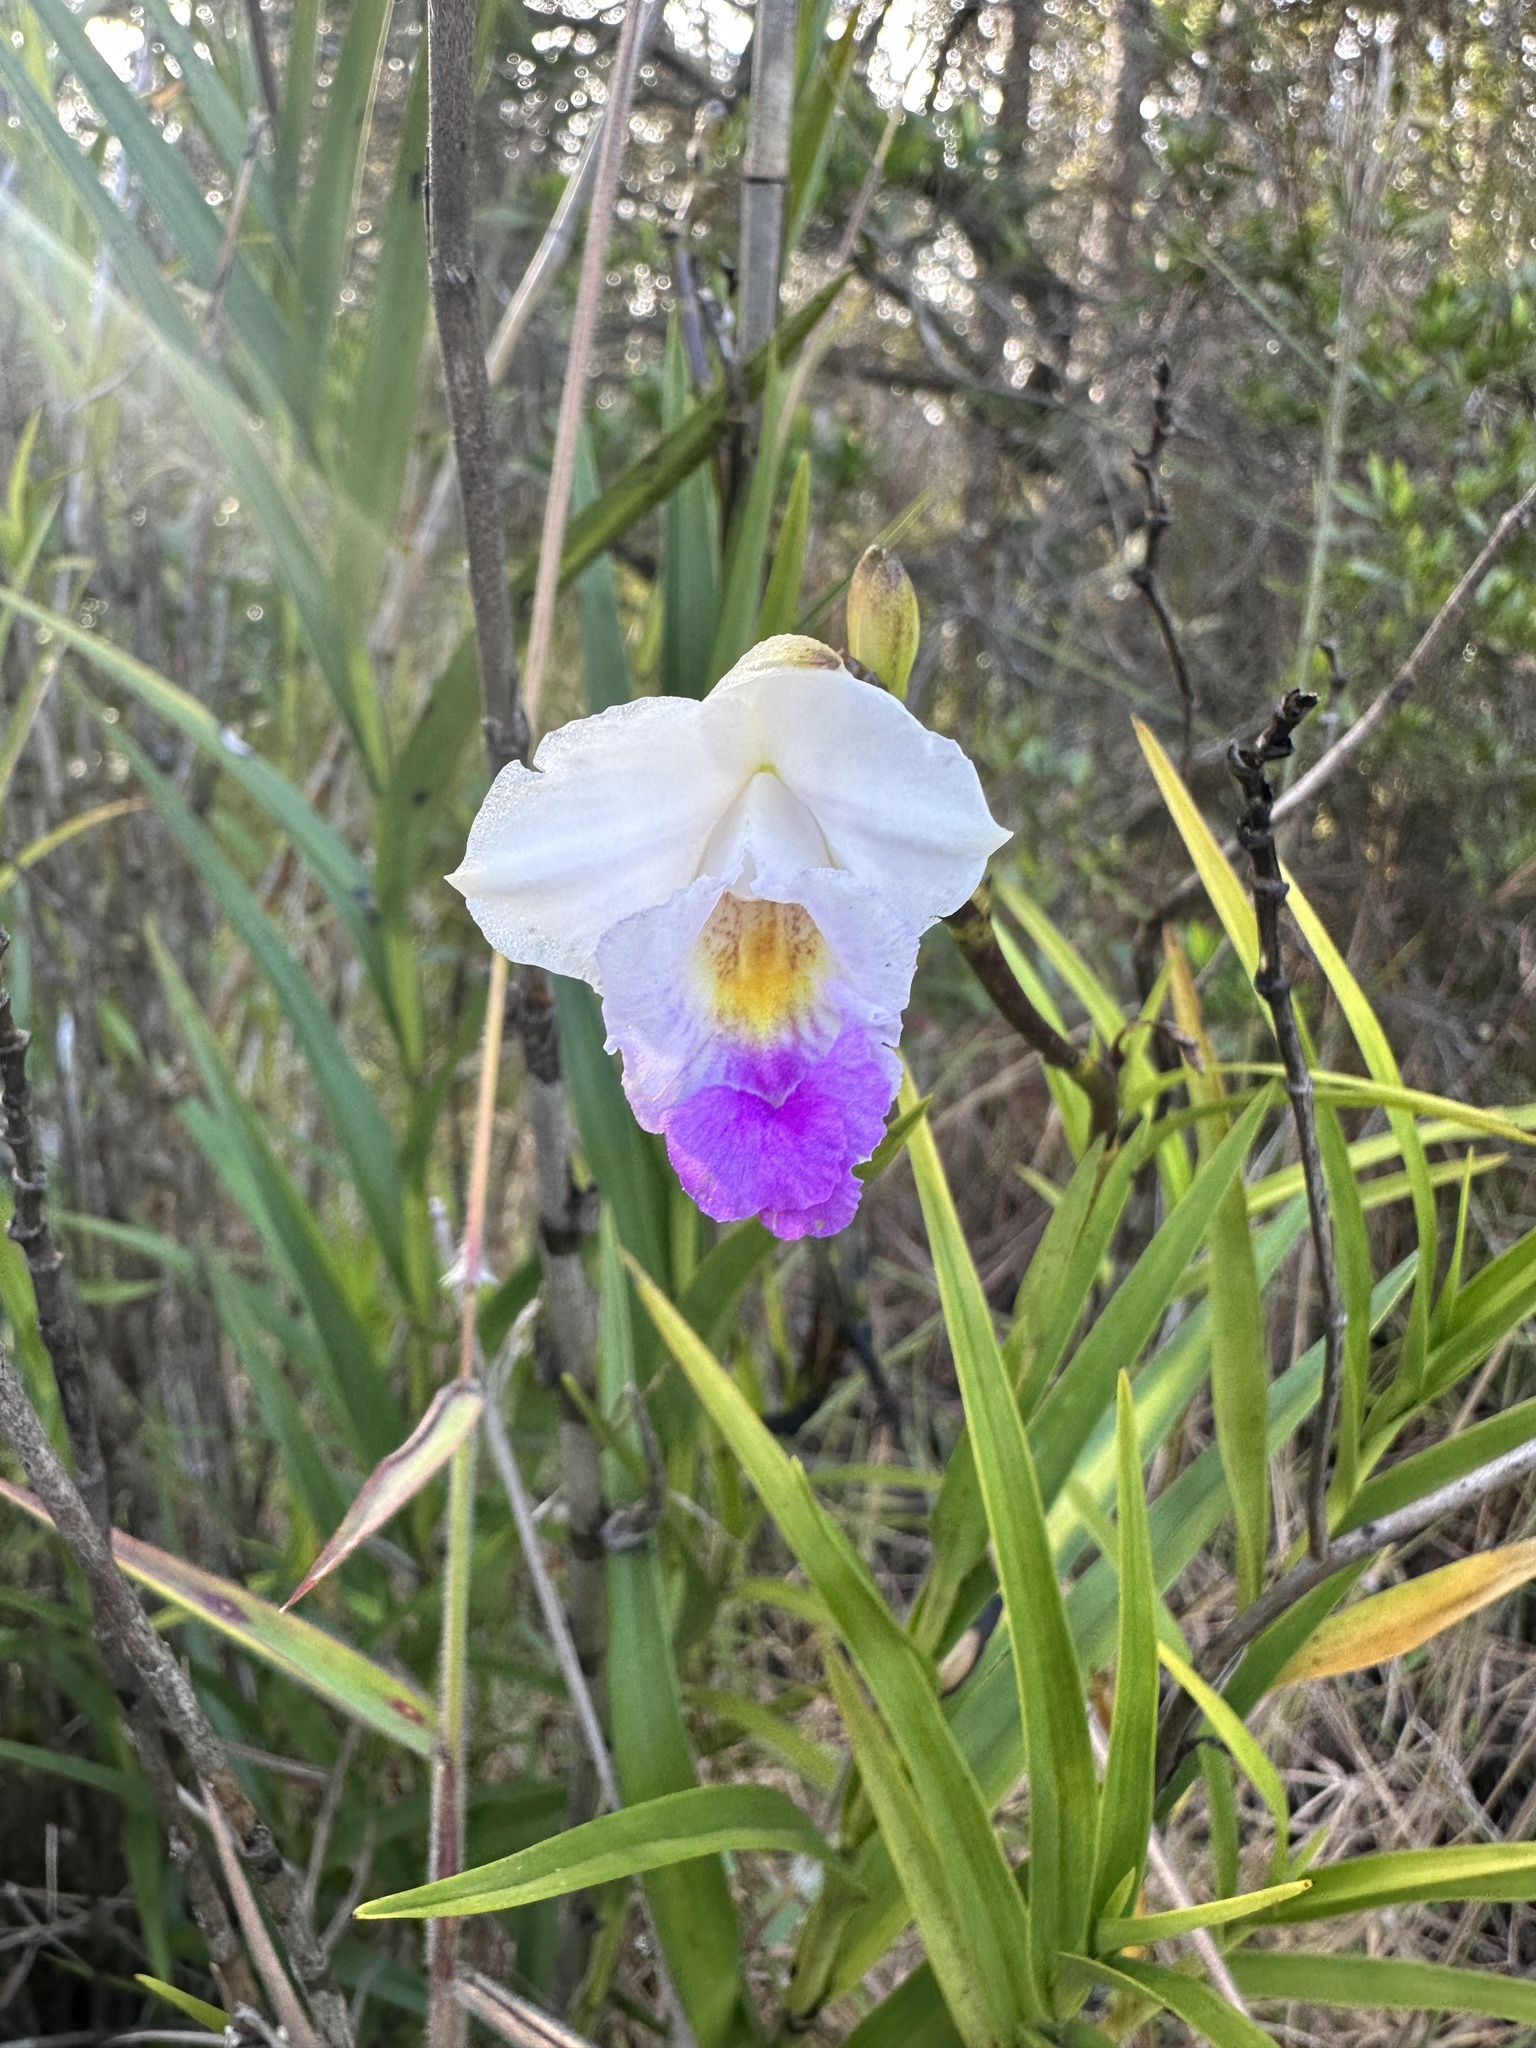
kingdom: Plantae
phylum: Tracheophyta
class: Liliopsida
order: Asparagales
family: Orchidaceae
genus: Arundina
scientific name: Arundina graminifolia
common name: Bamboo orchid
